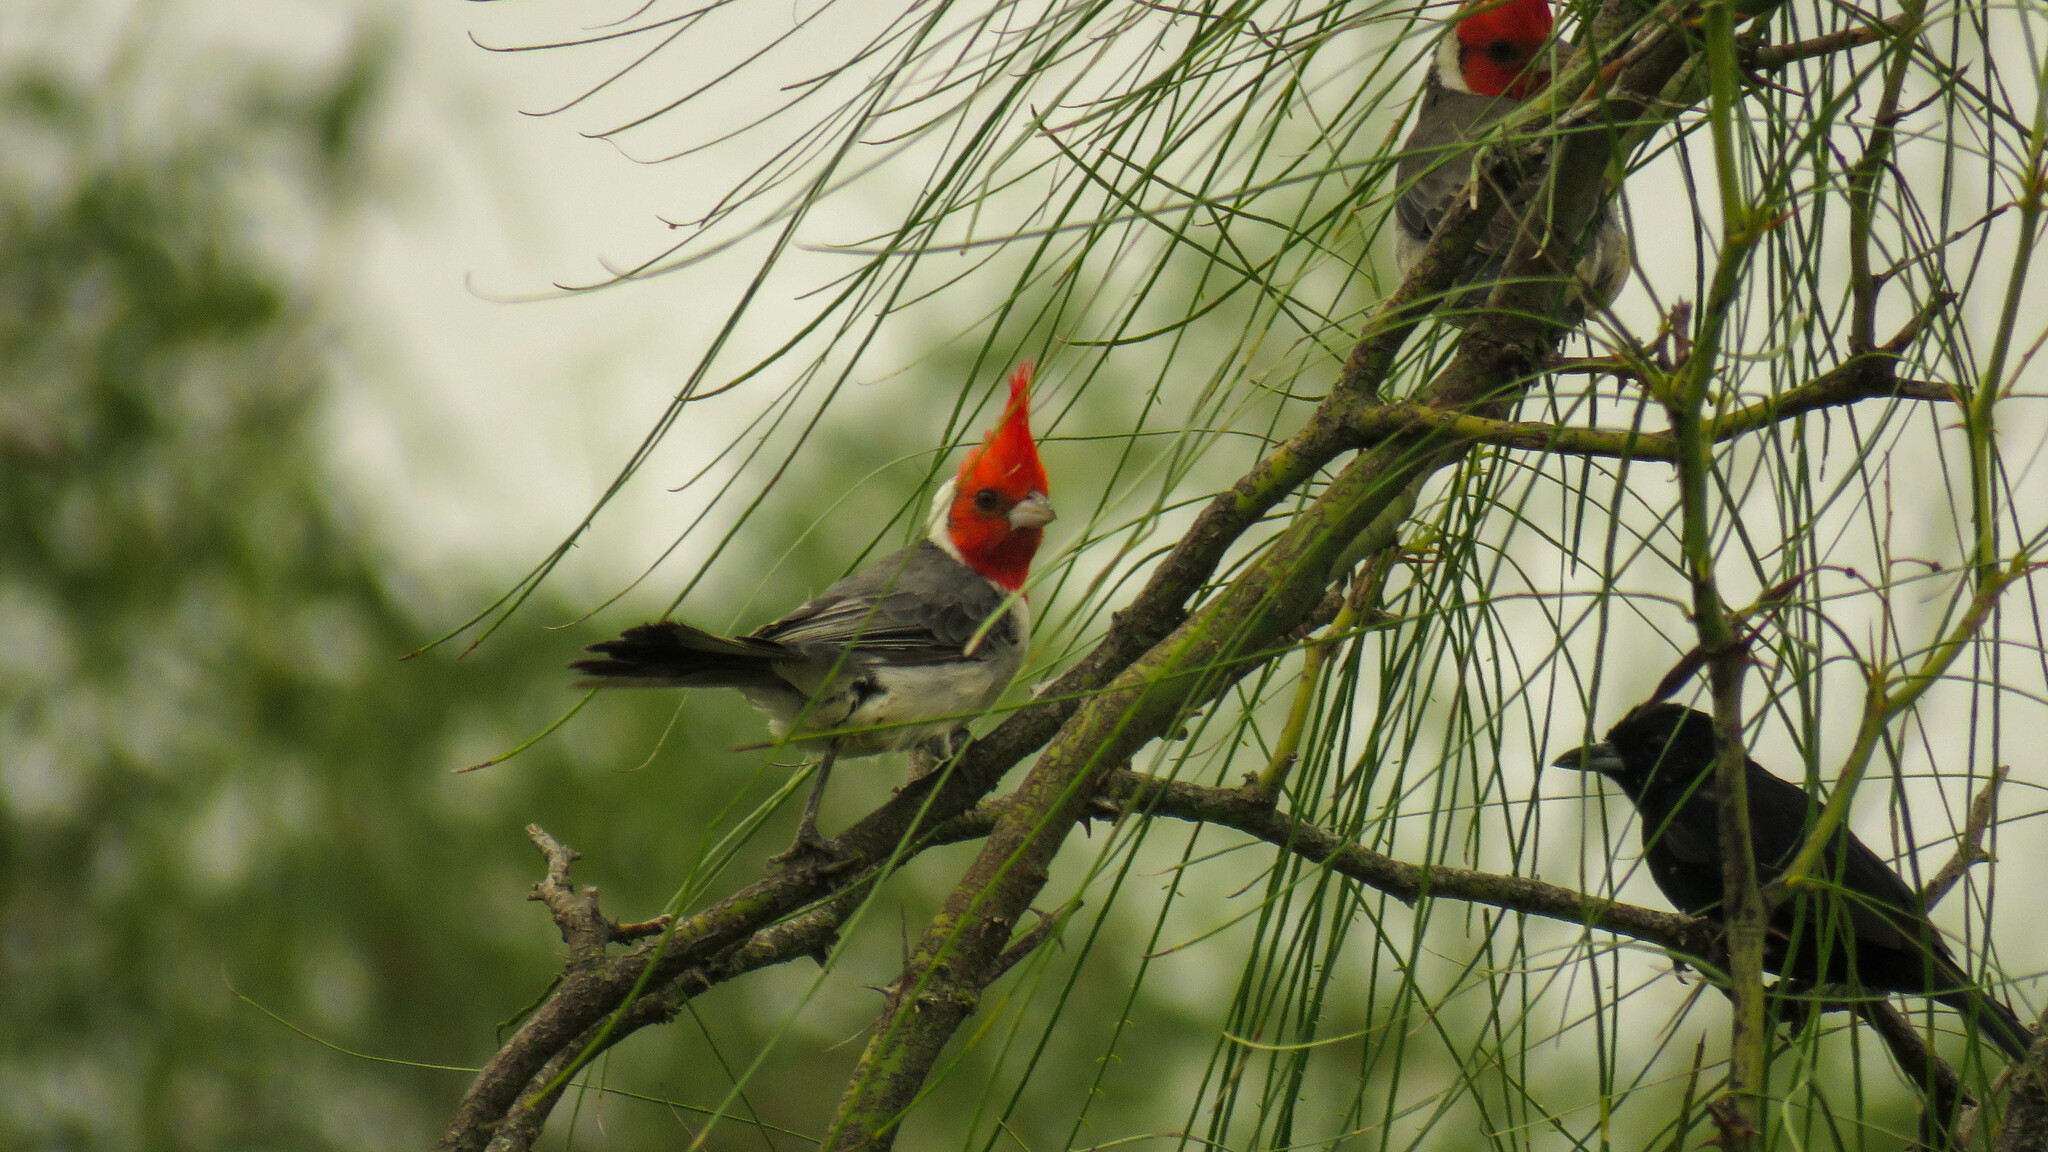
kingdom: Animalia
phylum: Chordata
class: Aves
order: Passeriformes
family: Thraupidae
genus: Paroaria
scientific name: Paroaria coronata
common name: Red-crested cardinal
